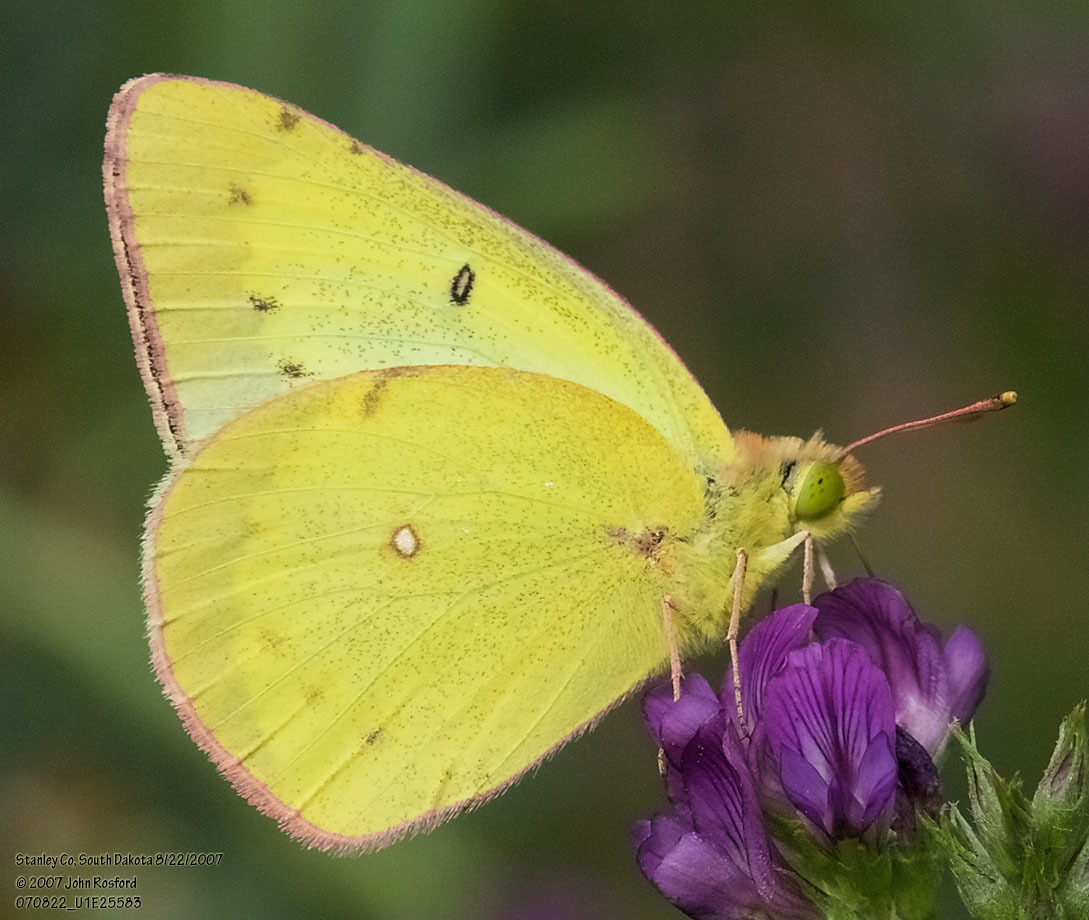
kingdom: Animalia
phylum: Arthropoda
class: Insecta
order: Lepidoptera
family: Pieridae
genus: Colias
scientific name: Colias eurytheme
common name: Alfalfa butterfly
